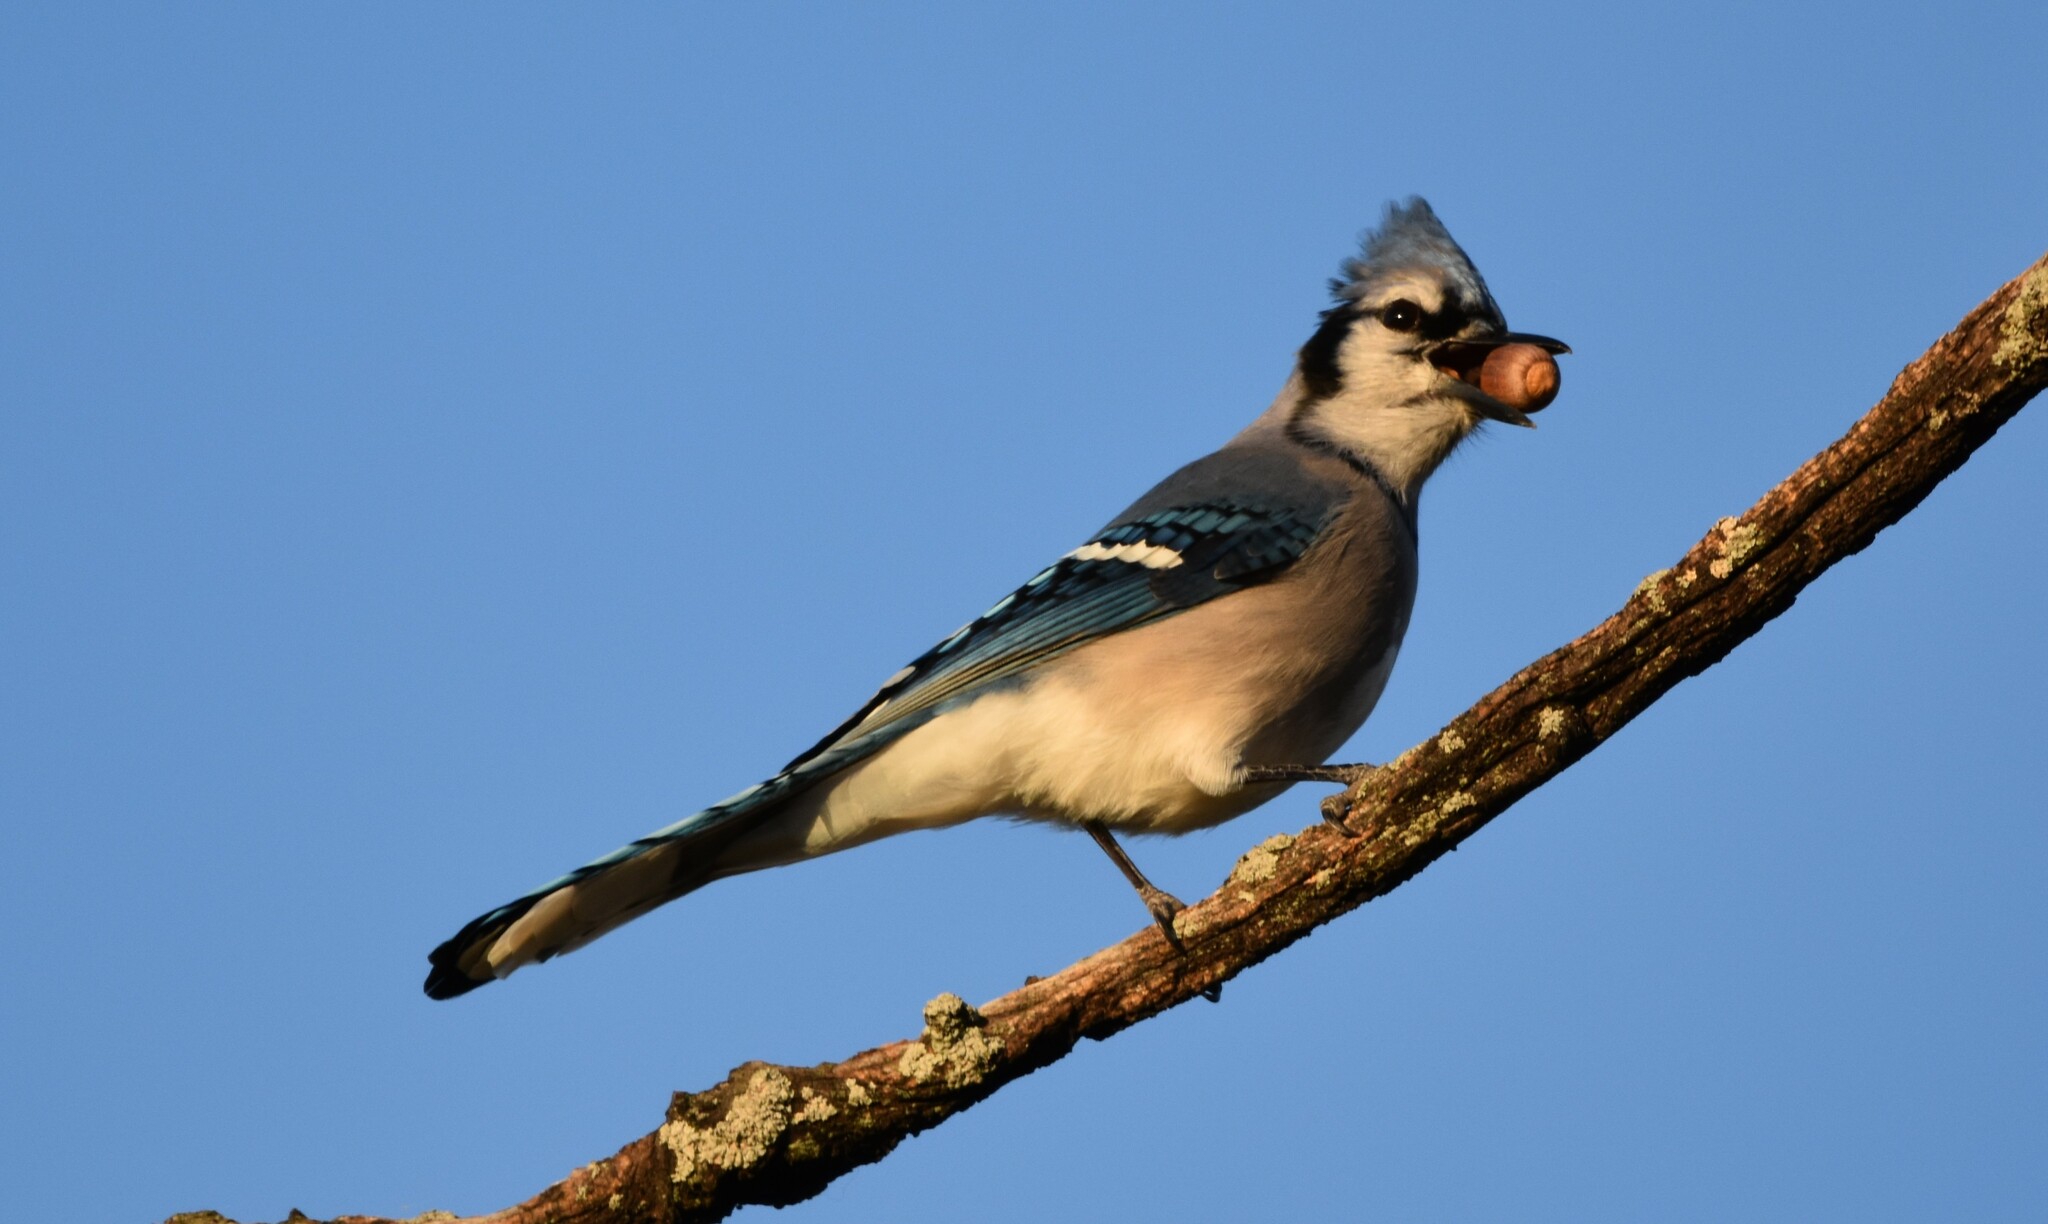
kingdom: Animalia
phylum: Chordata
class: Aves
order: Passeriformes
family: Corvidae
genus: Cyanocitta
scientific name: Cyanocitta cristata
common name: Blue jay
